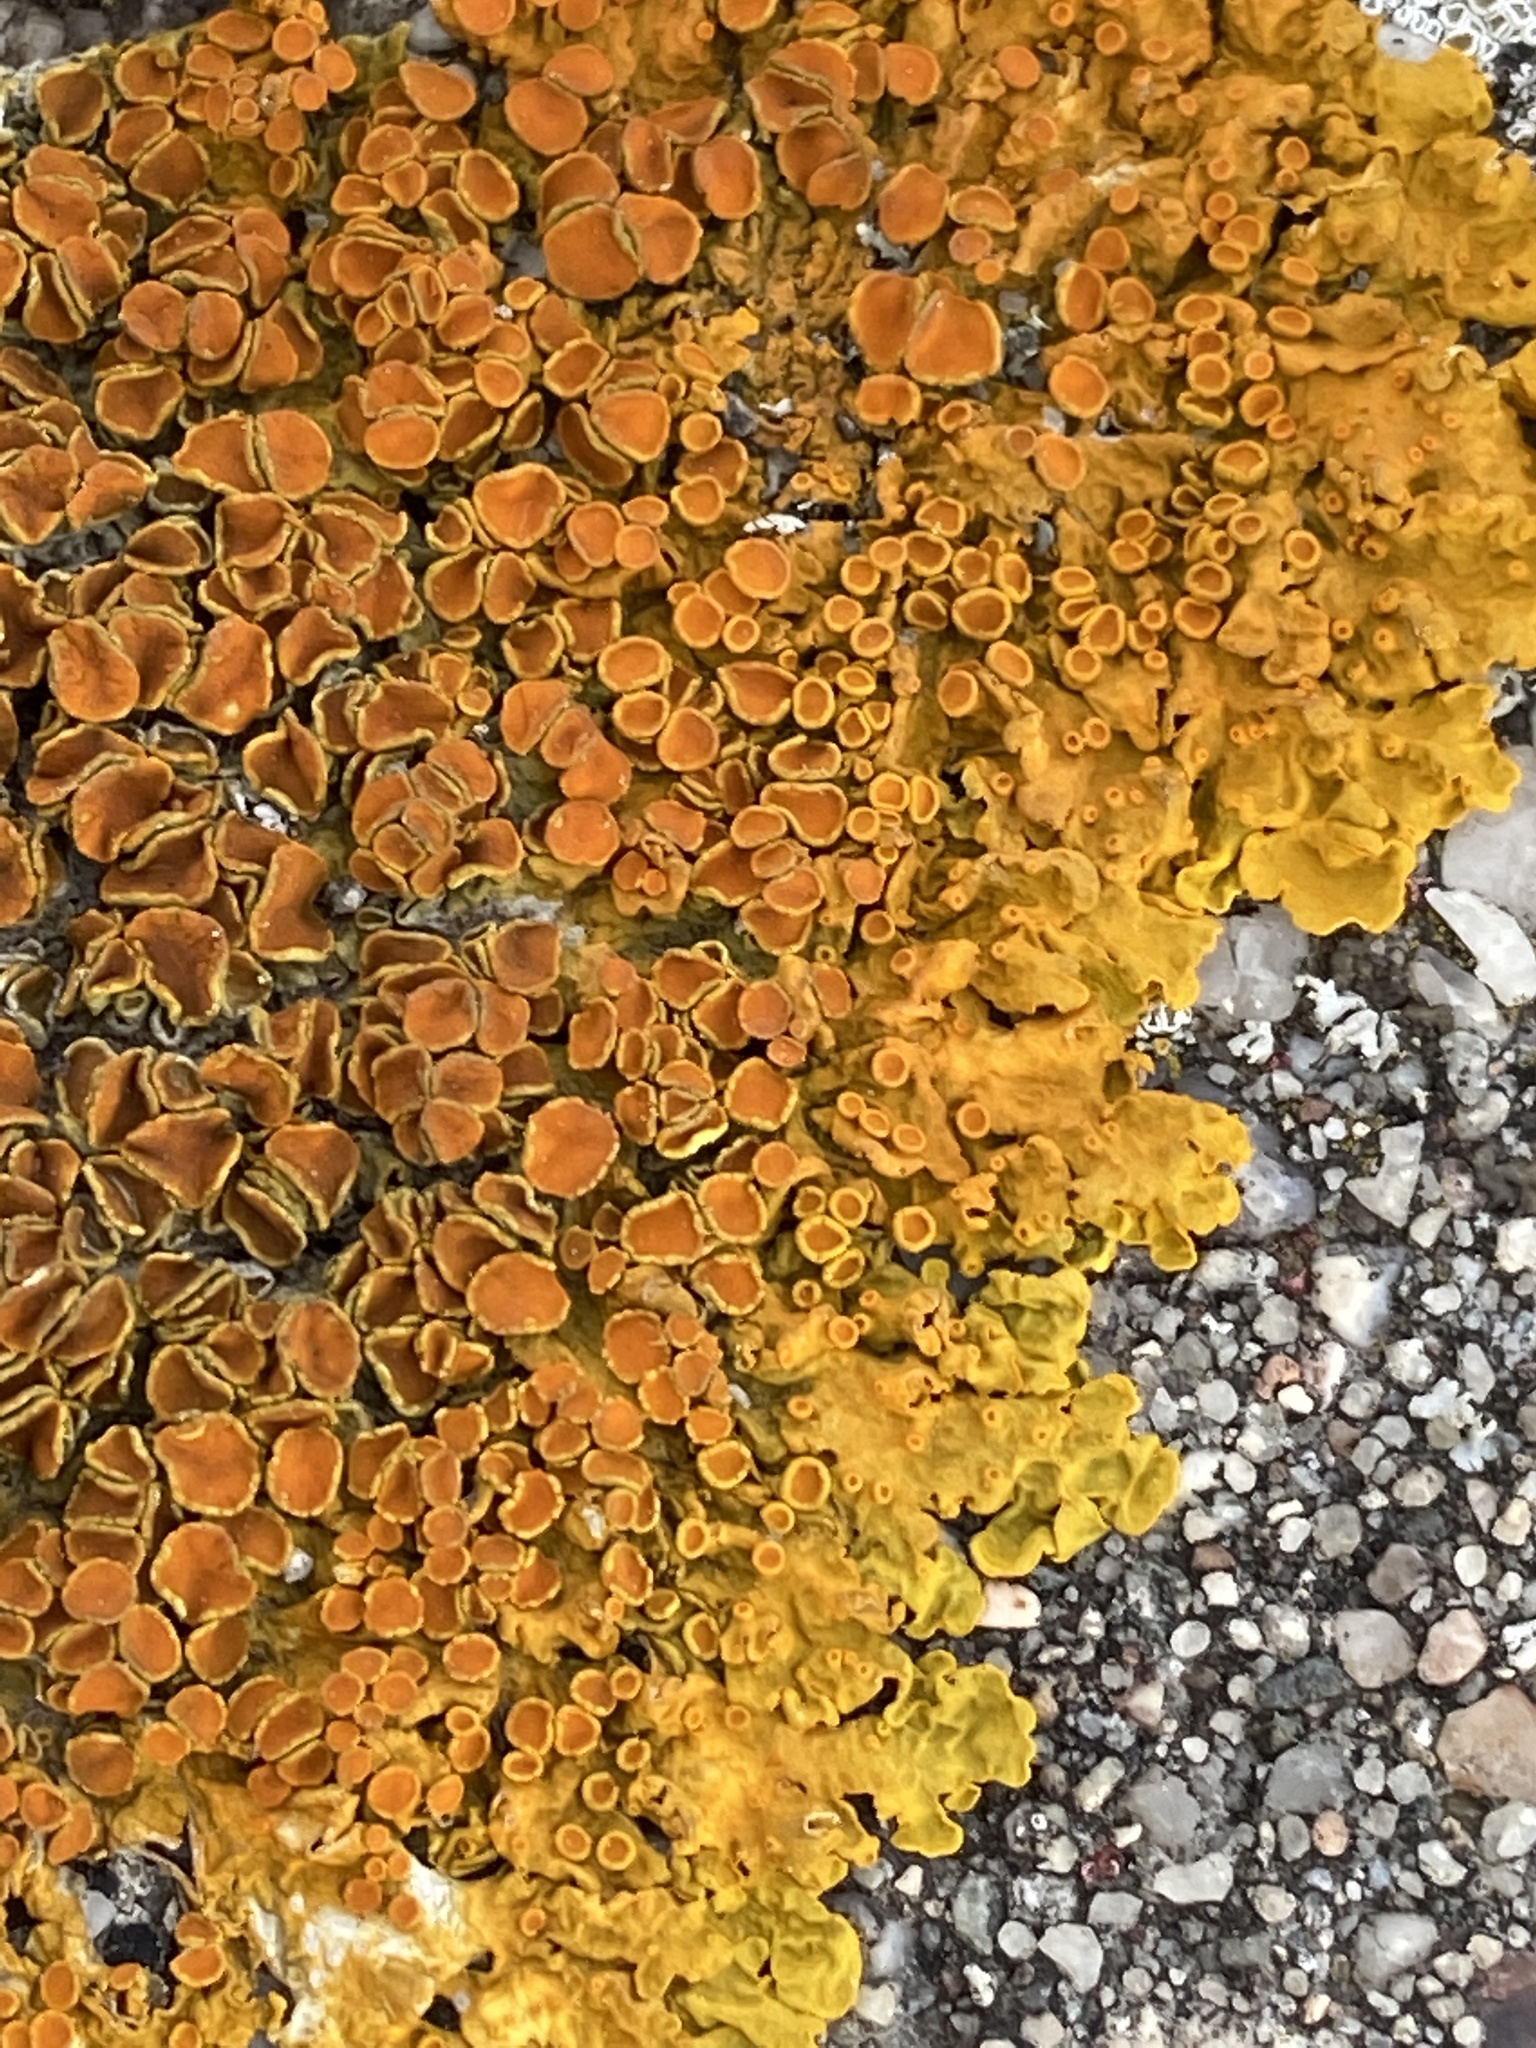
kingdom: Fungi
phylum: Ascomycota
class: Lecanoromycetes
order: Teloschistales
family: Teloschistaceae
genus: Xanthoria
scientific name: Xanthoria parietina
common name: Common orange lichen
